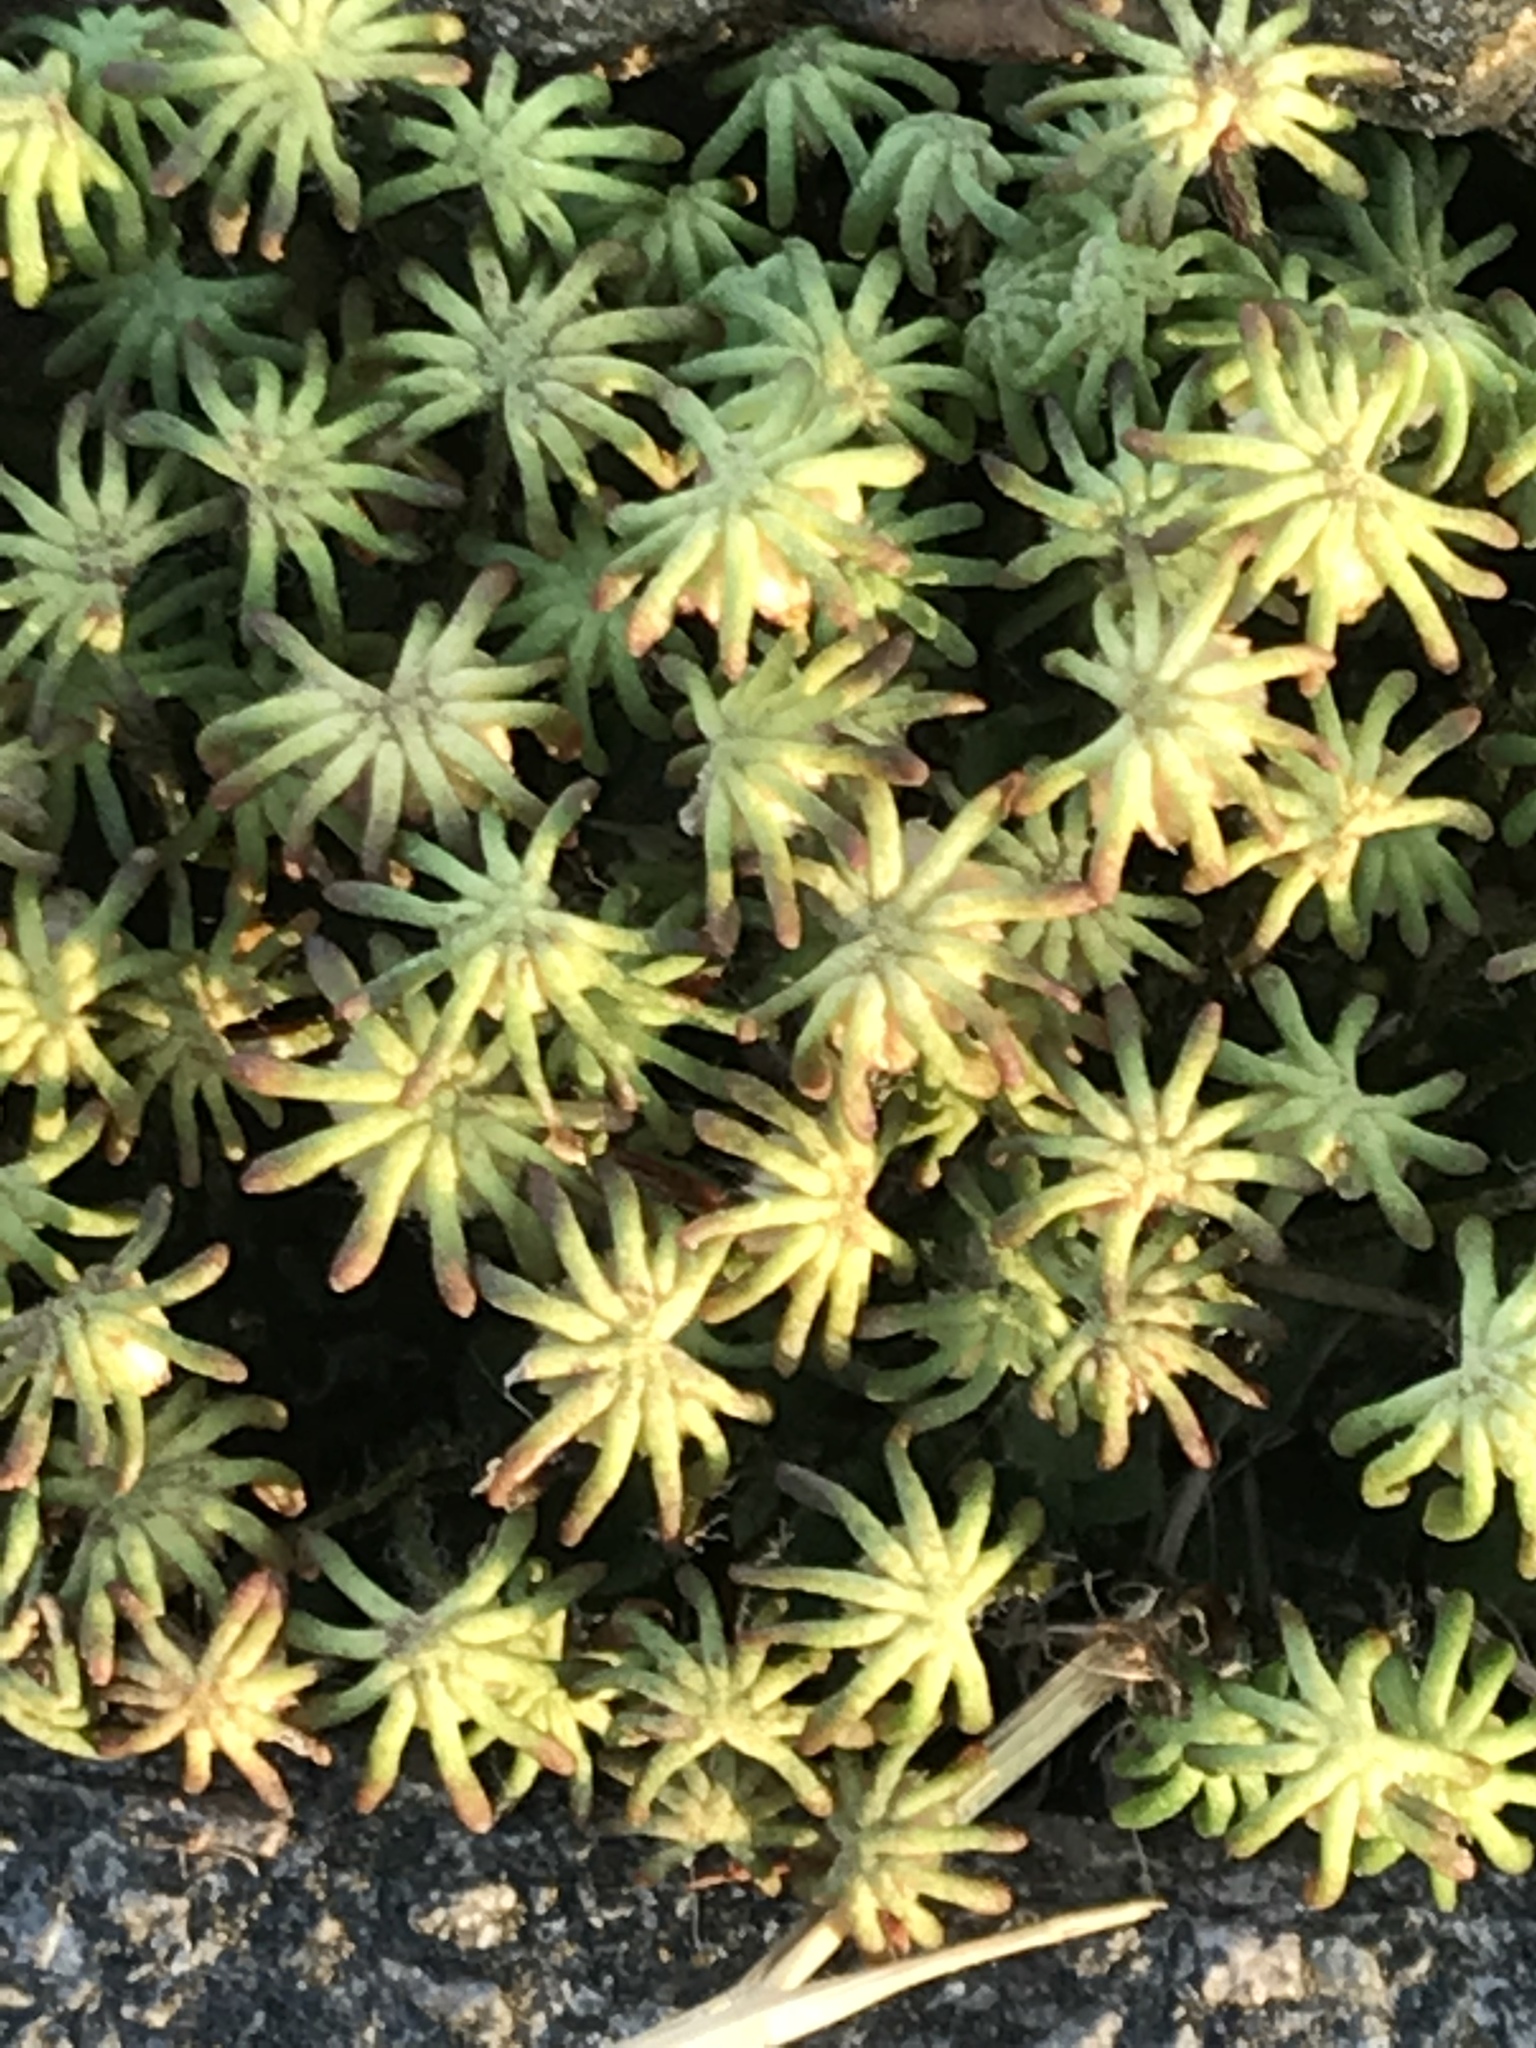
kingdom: Plantae
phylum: Marchantiophyta
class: Marchantiopsida
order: Marchantiales
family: Marchantiaceae
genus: Marchantia
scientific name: Marchantia polymorpha
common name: Common liverwort
